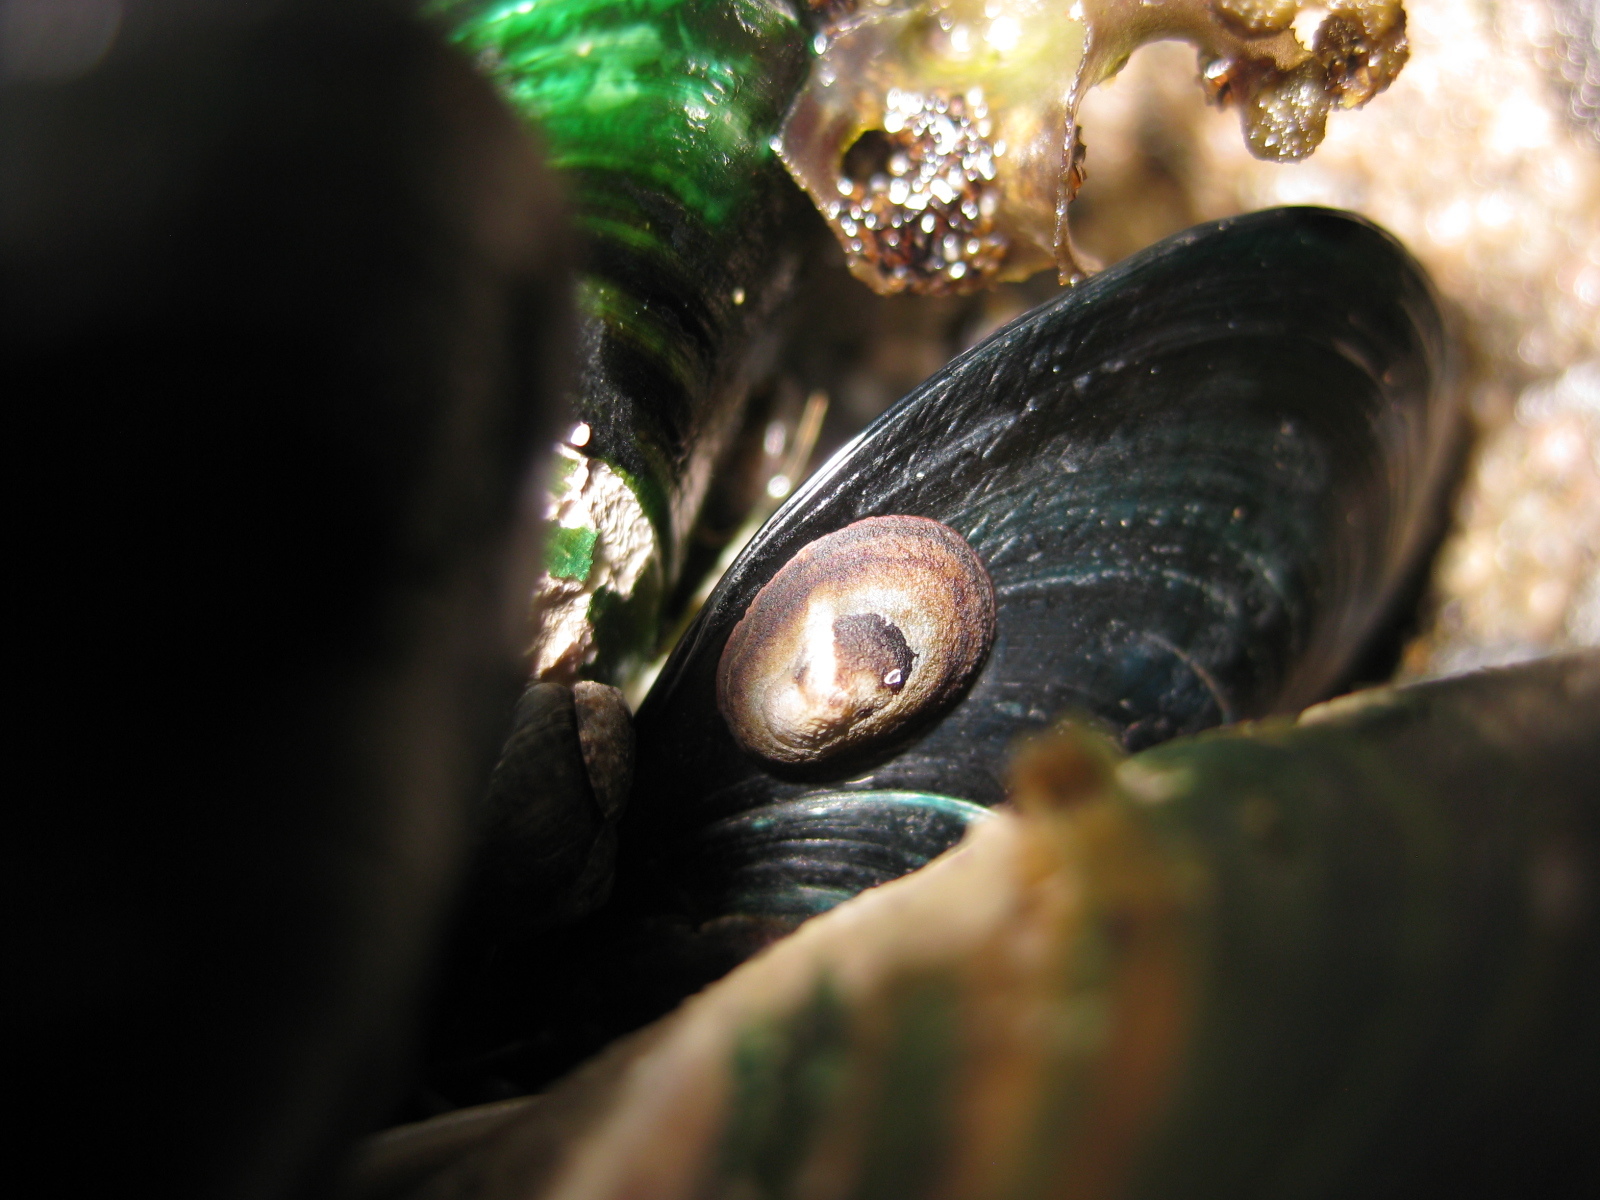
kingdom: Animalia
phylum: Mollusca
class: Gastropoda
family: Lottiidae
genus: Notoacmea
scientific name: Notoacmea parviconoidea
